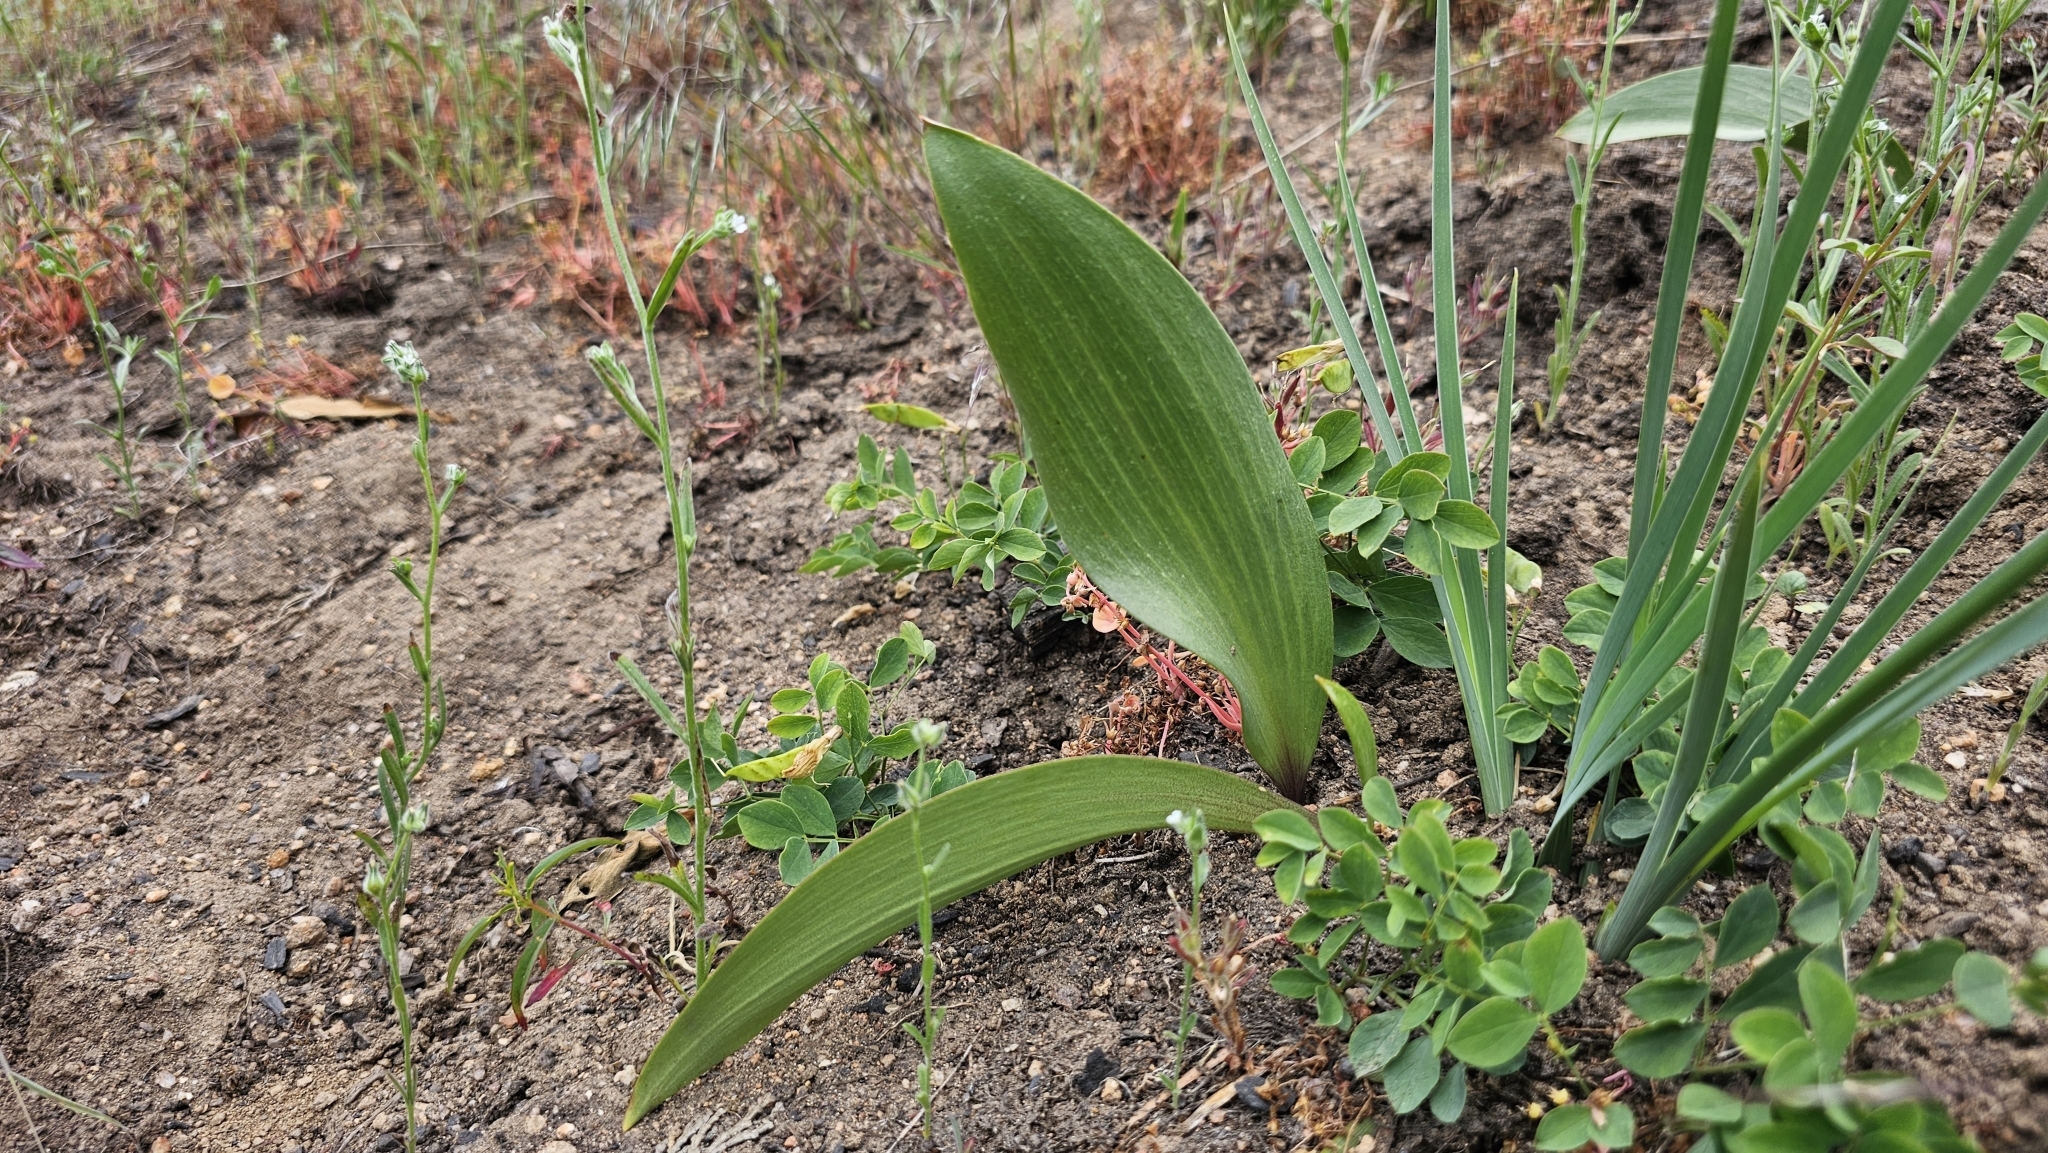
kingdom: Plantae
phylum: Tracheophyta
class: Liliopsida
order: Liliales
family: Liliaceae
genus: Fritillaria
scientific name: Fritillaria micrantha
